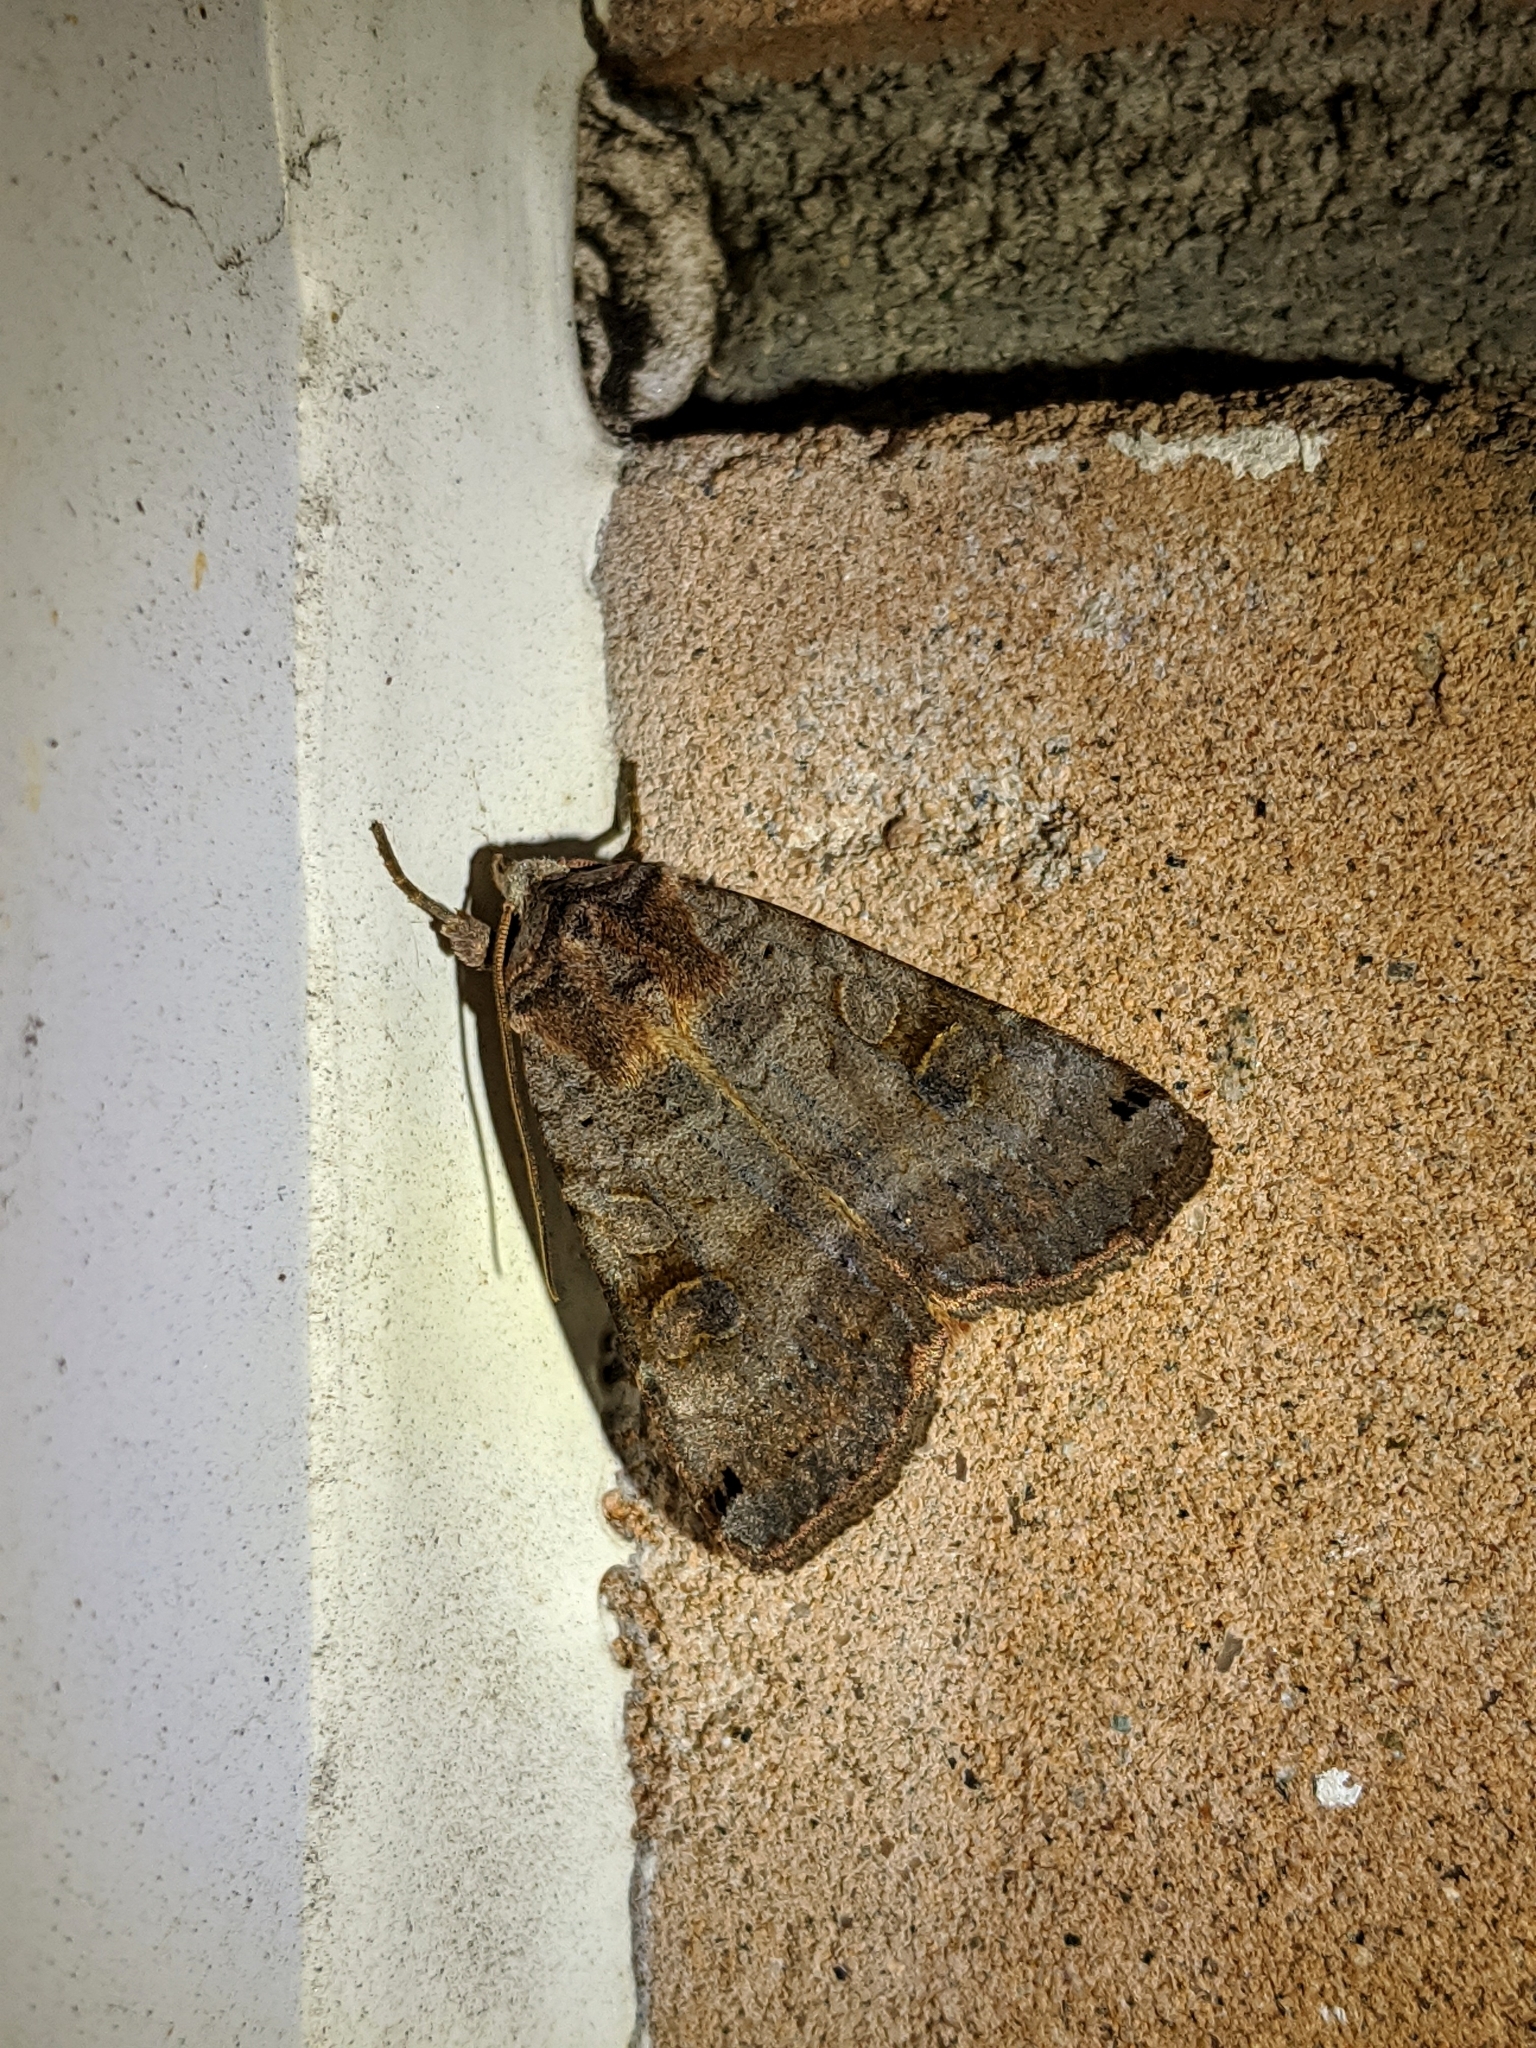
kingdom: Animalia
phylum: Arthropoda
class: Insecta
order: Lepidoptera
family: Noctuidae
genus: Xestia
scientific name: Xestia smithii
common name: Smith's dart
